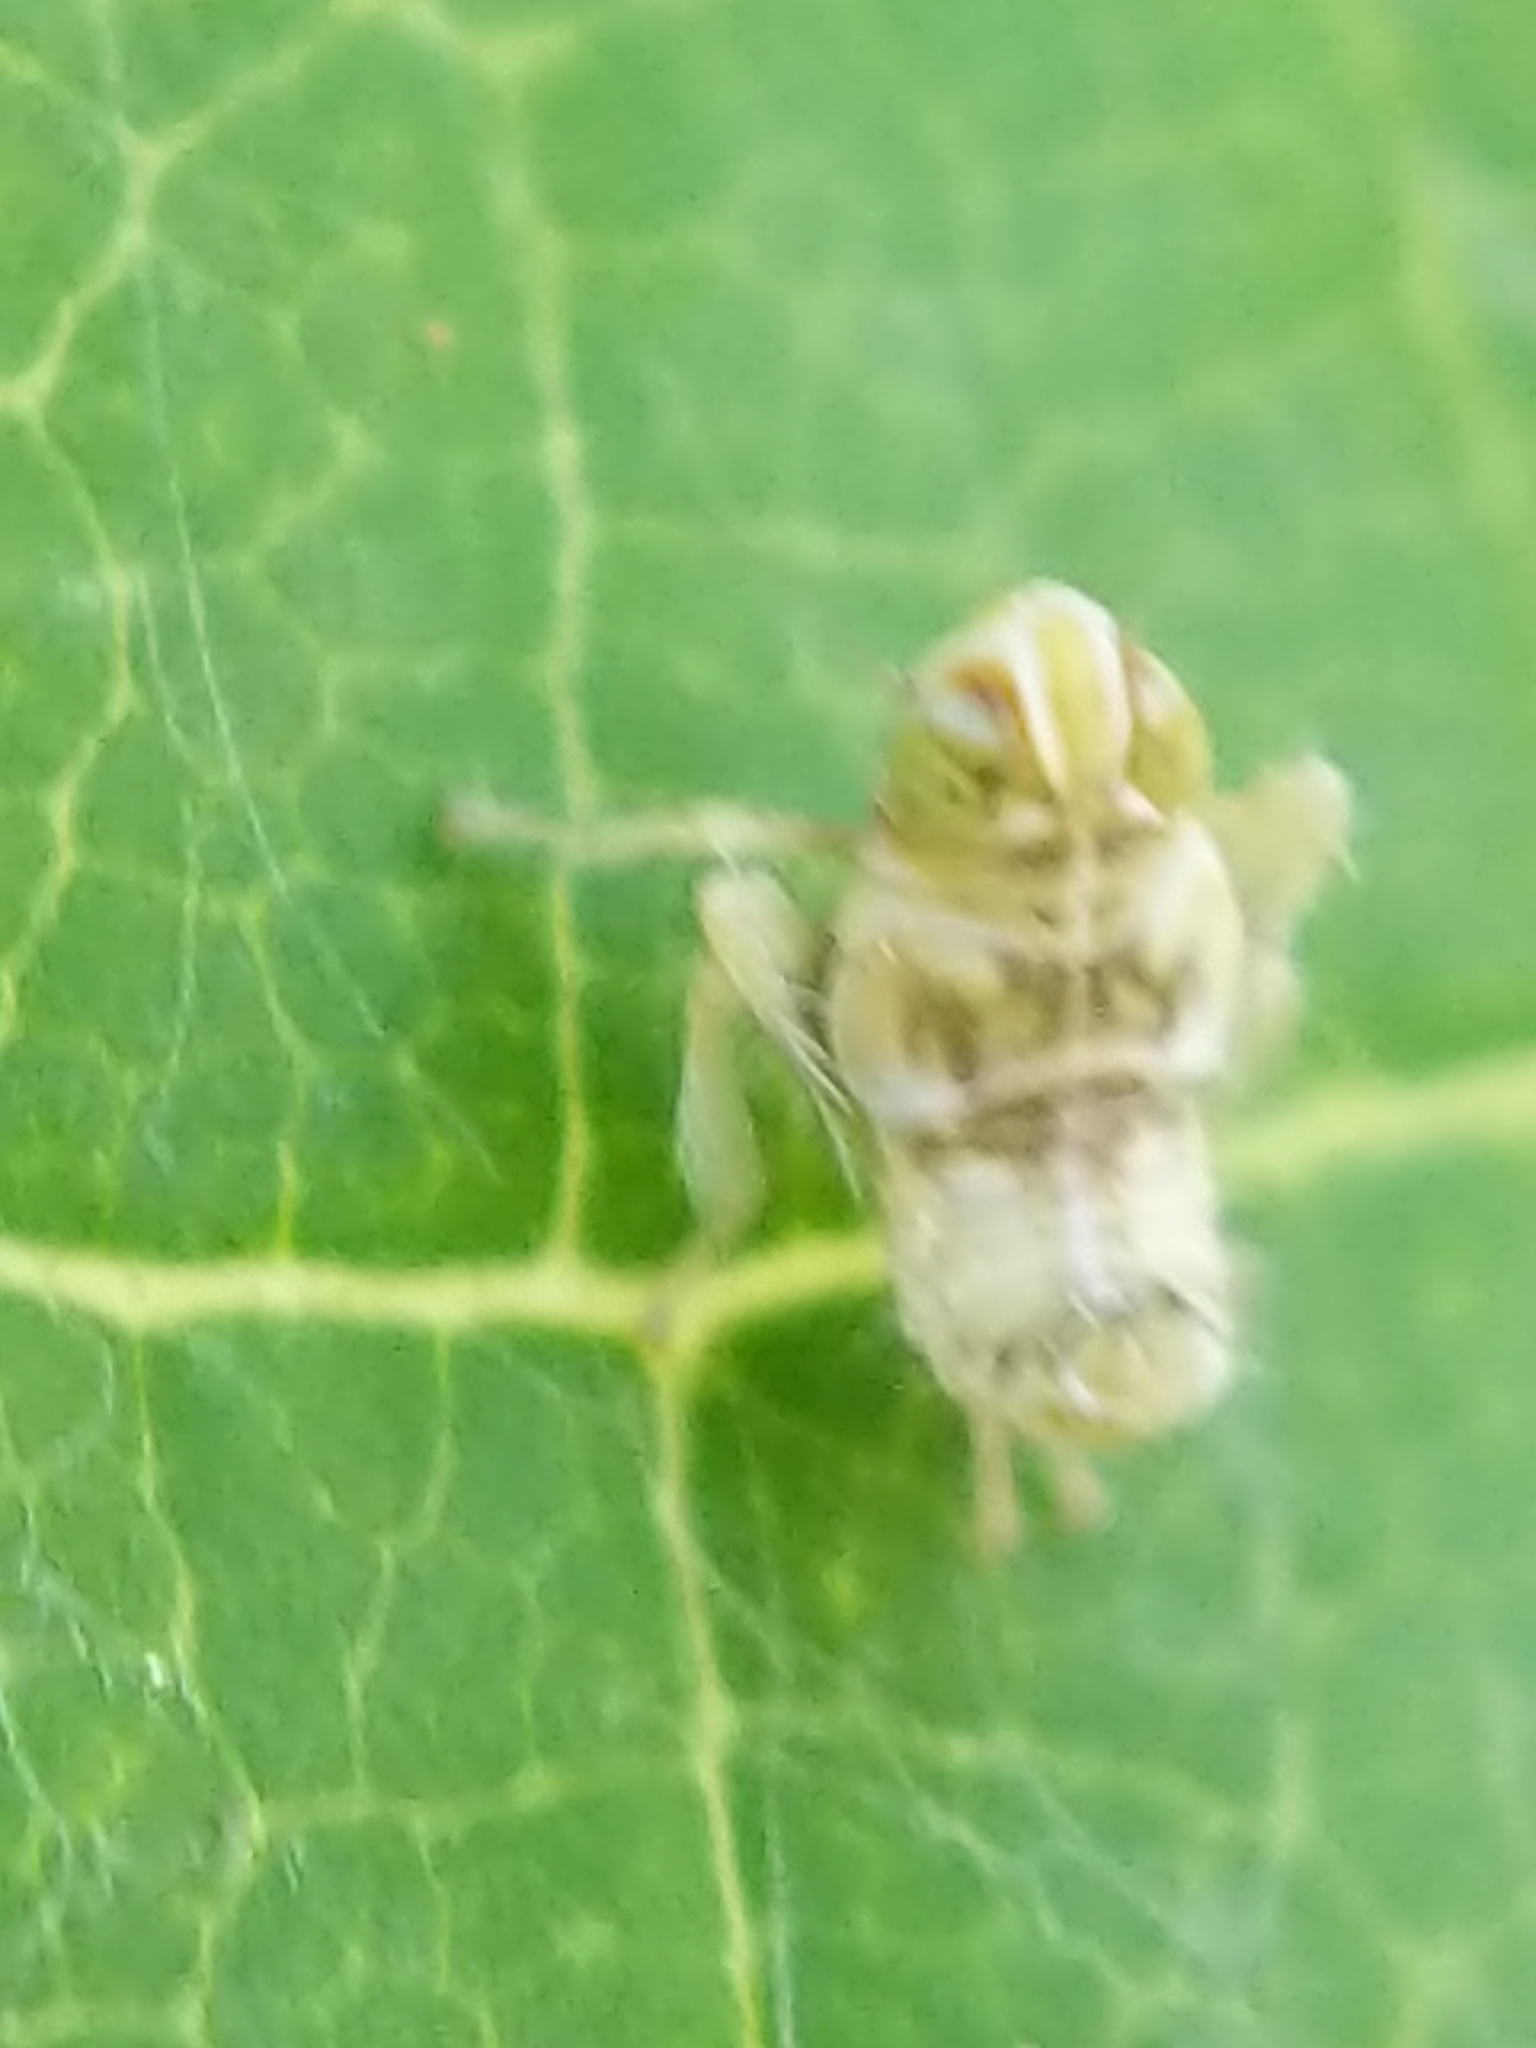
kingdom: Animalia
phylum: Arthropoda
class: Insecta
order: Hemiptera
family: Cicadellidae
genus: Jikradia
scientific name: Jikradia olitoria
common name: Coppery leafhopper
